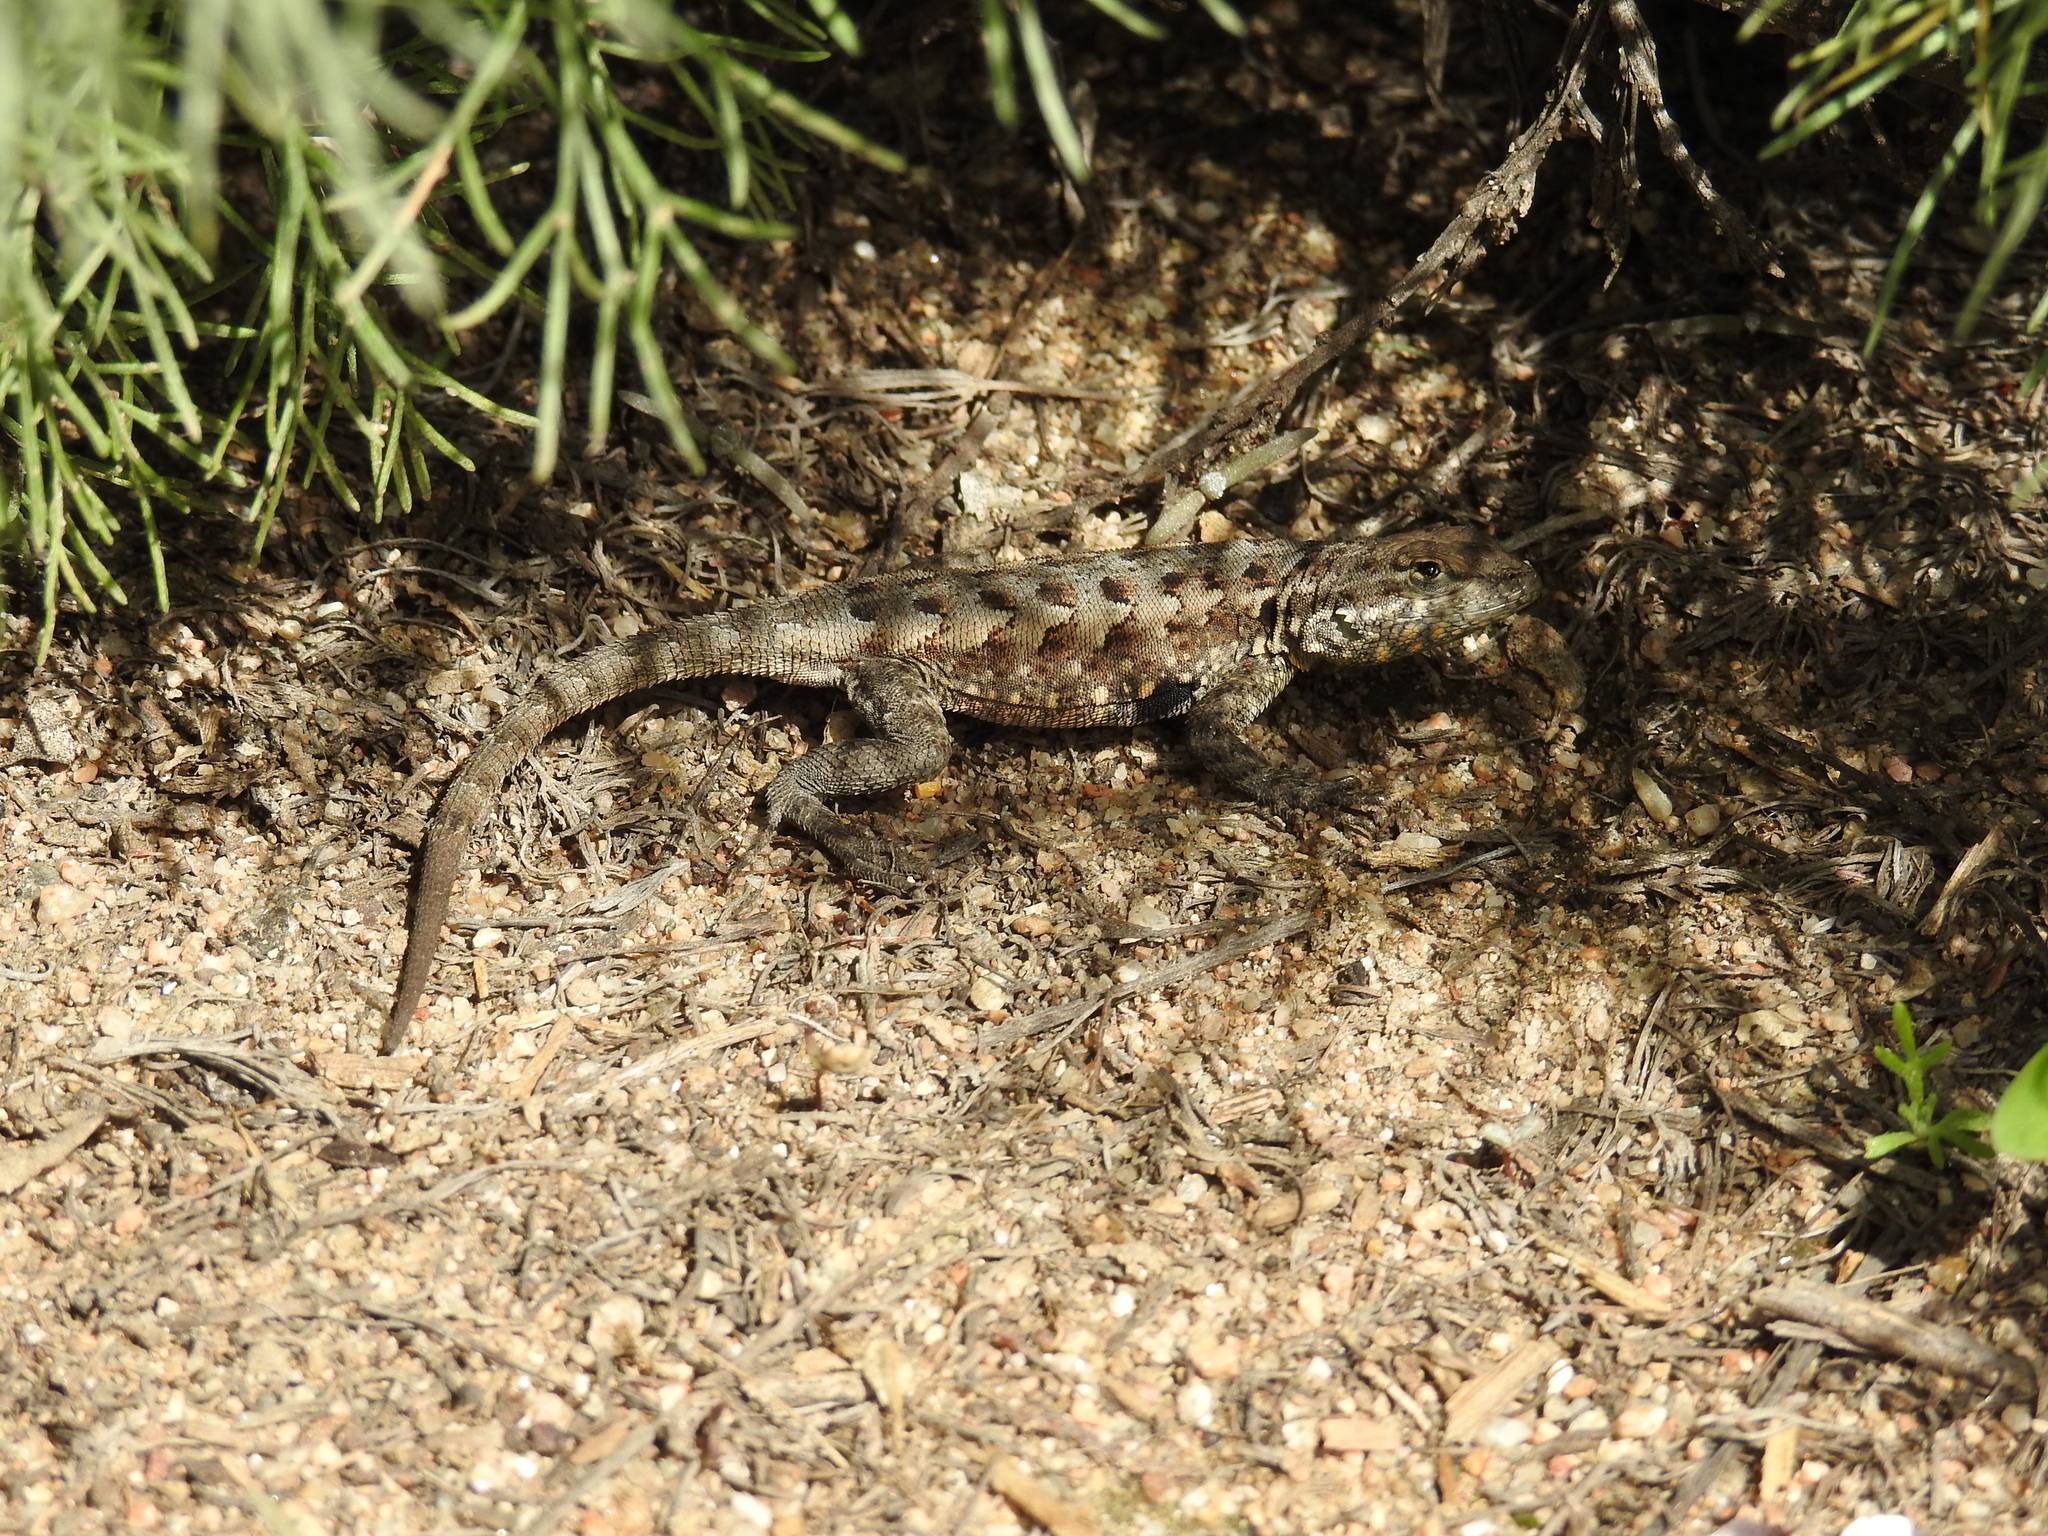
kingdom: Animalia
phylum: Chordata
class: Squamata
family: Phrynosomatidae
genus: Uta
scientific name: Uta stansburiana
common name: Side-blotched lizard
